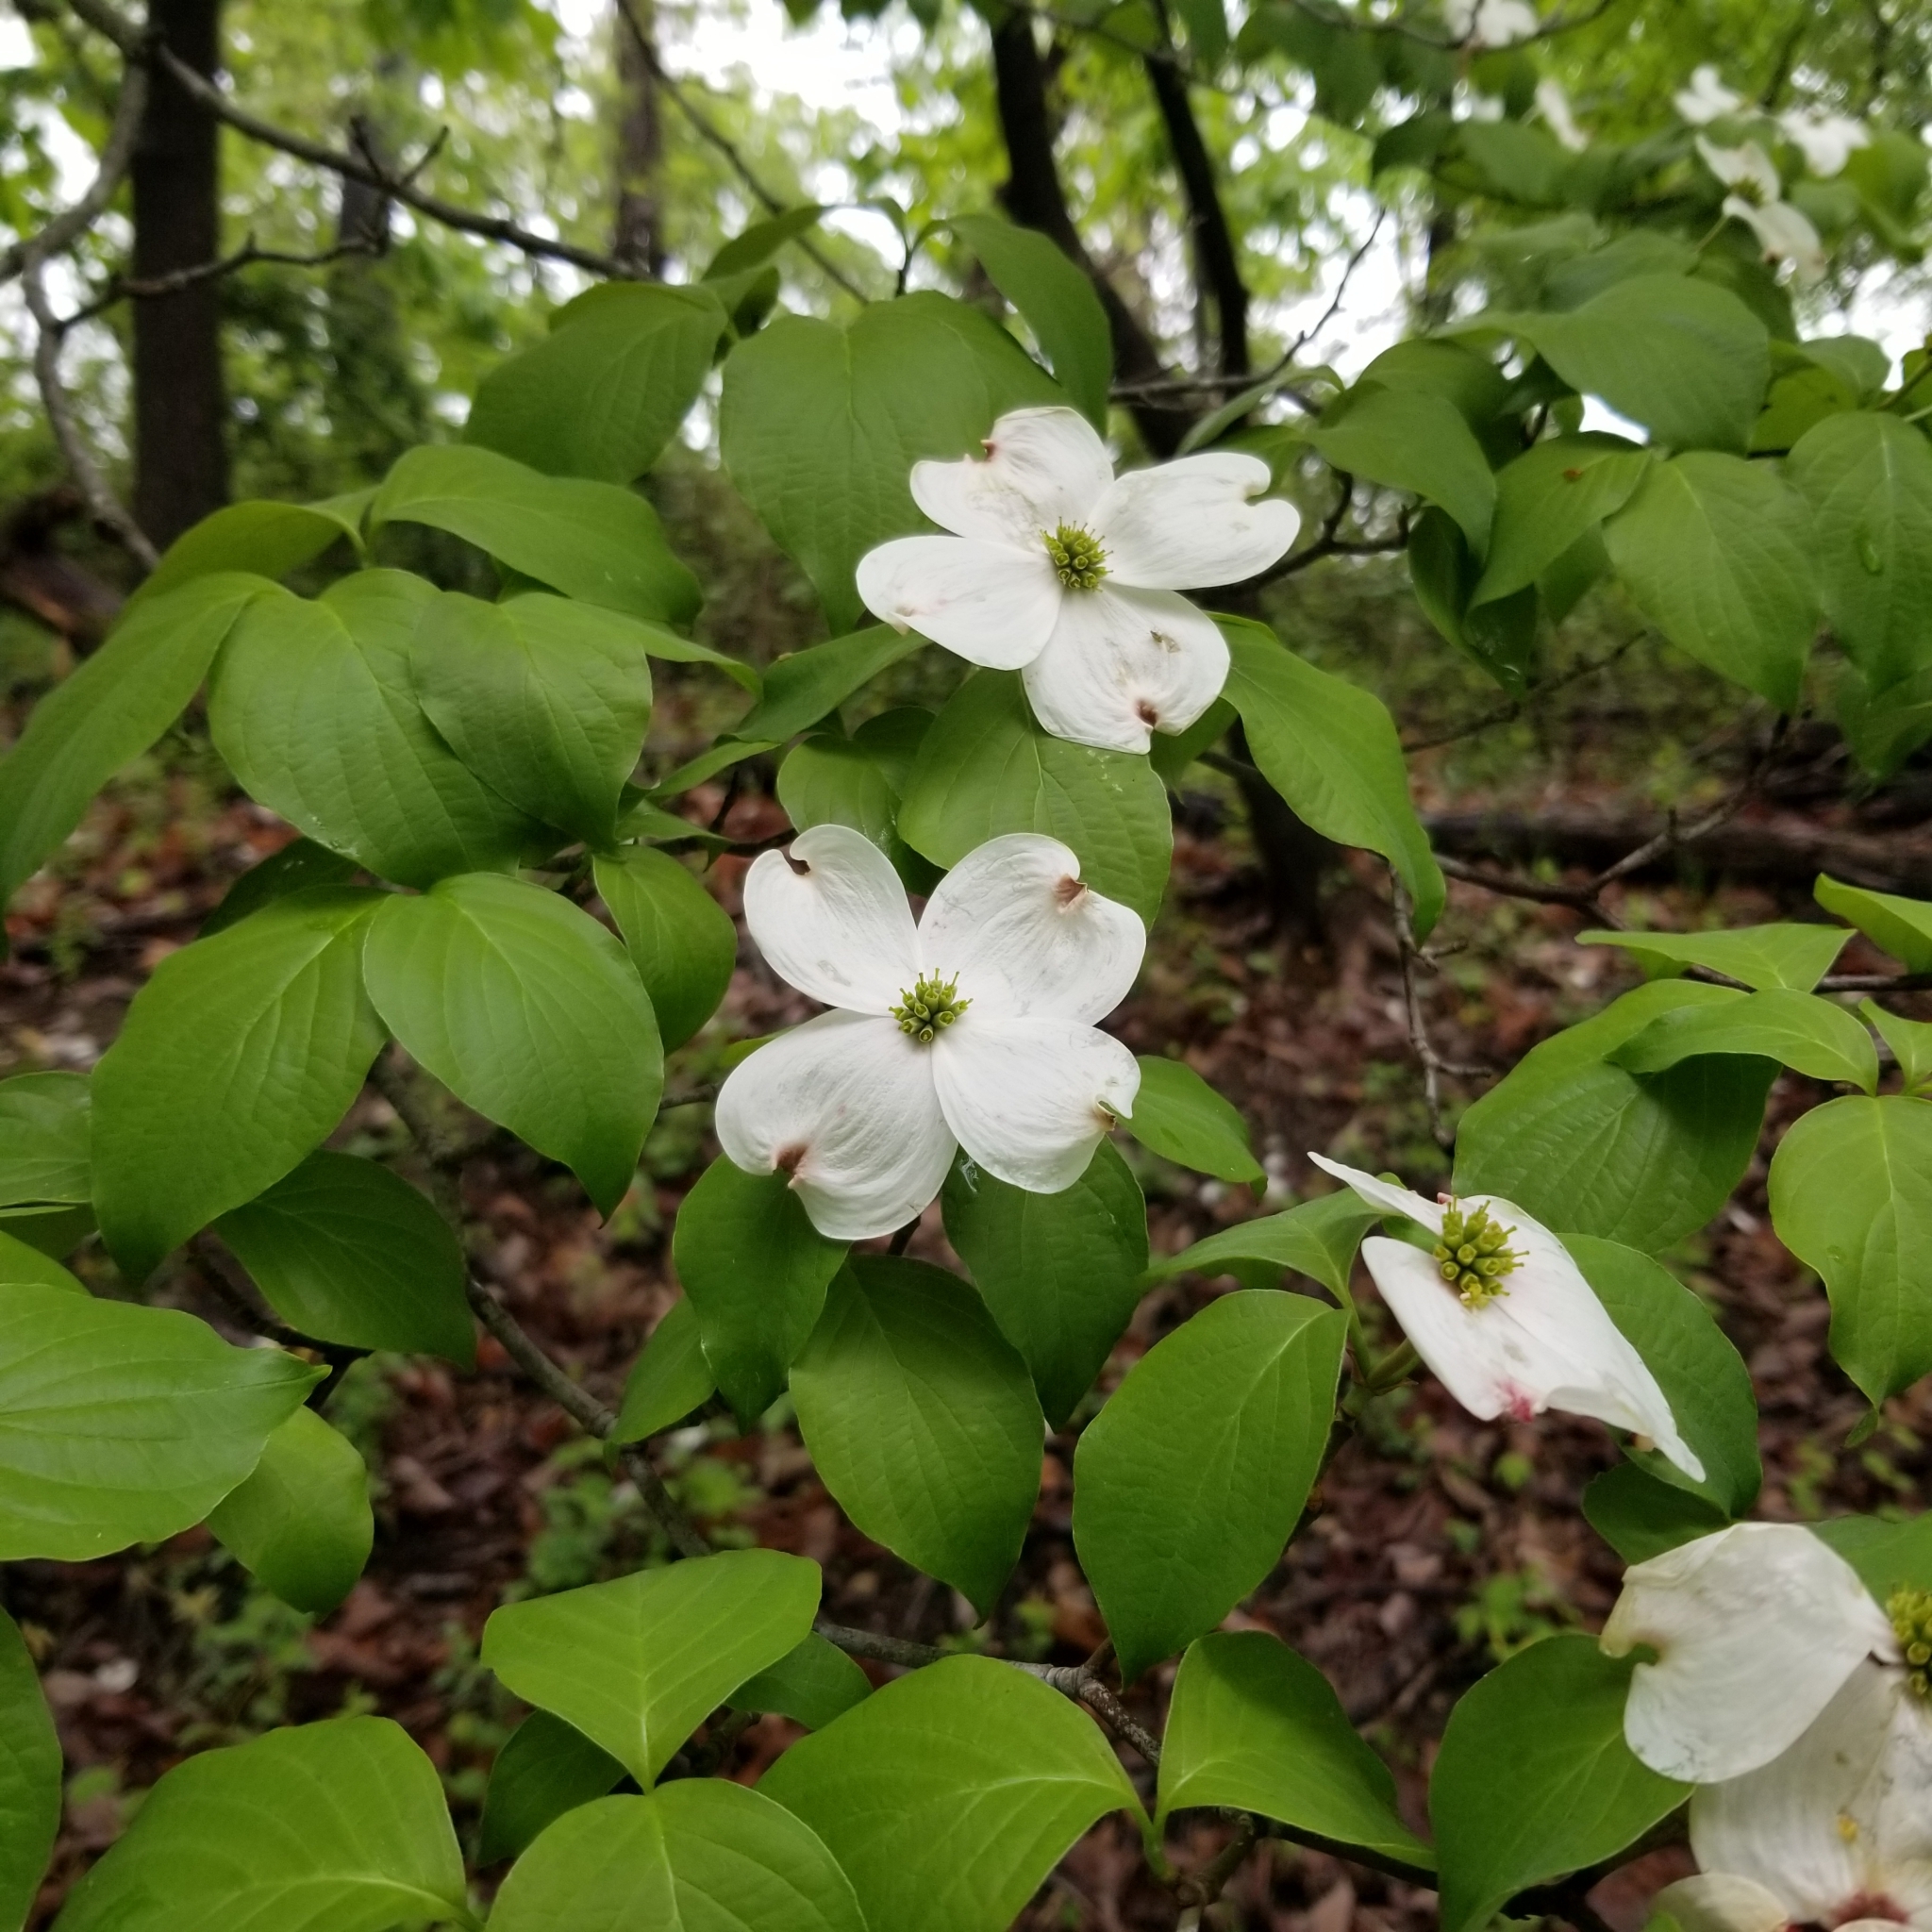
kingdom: Plantae
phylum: Tracheophyta
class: Magnoliopsida
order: Cornales
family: Cornaceae
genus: Cornus
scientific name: Cornus florida
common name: Flowering dogwood
